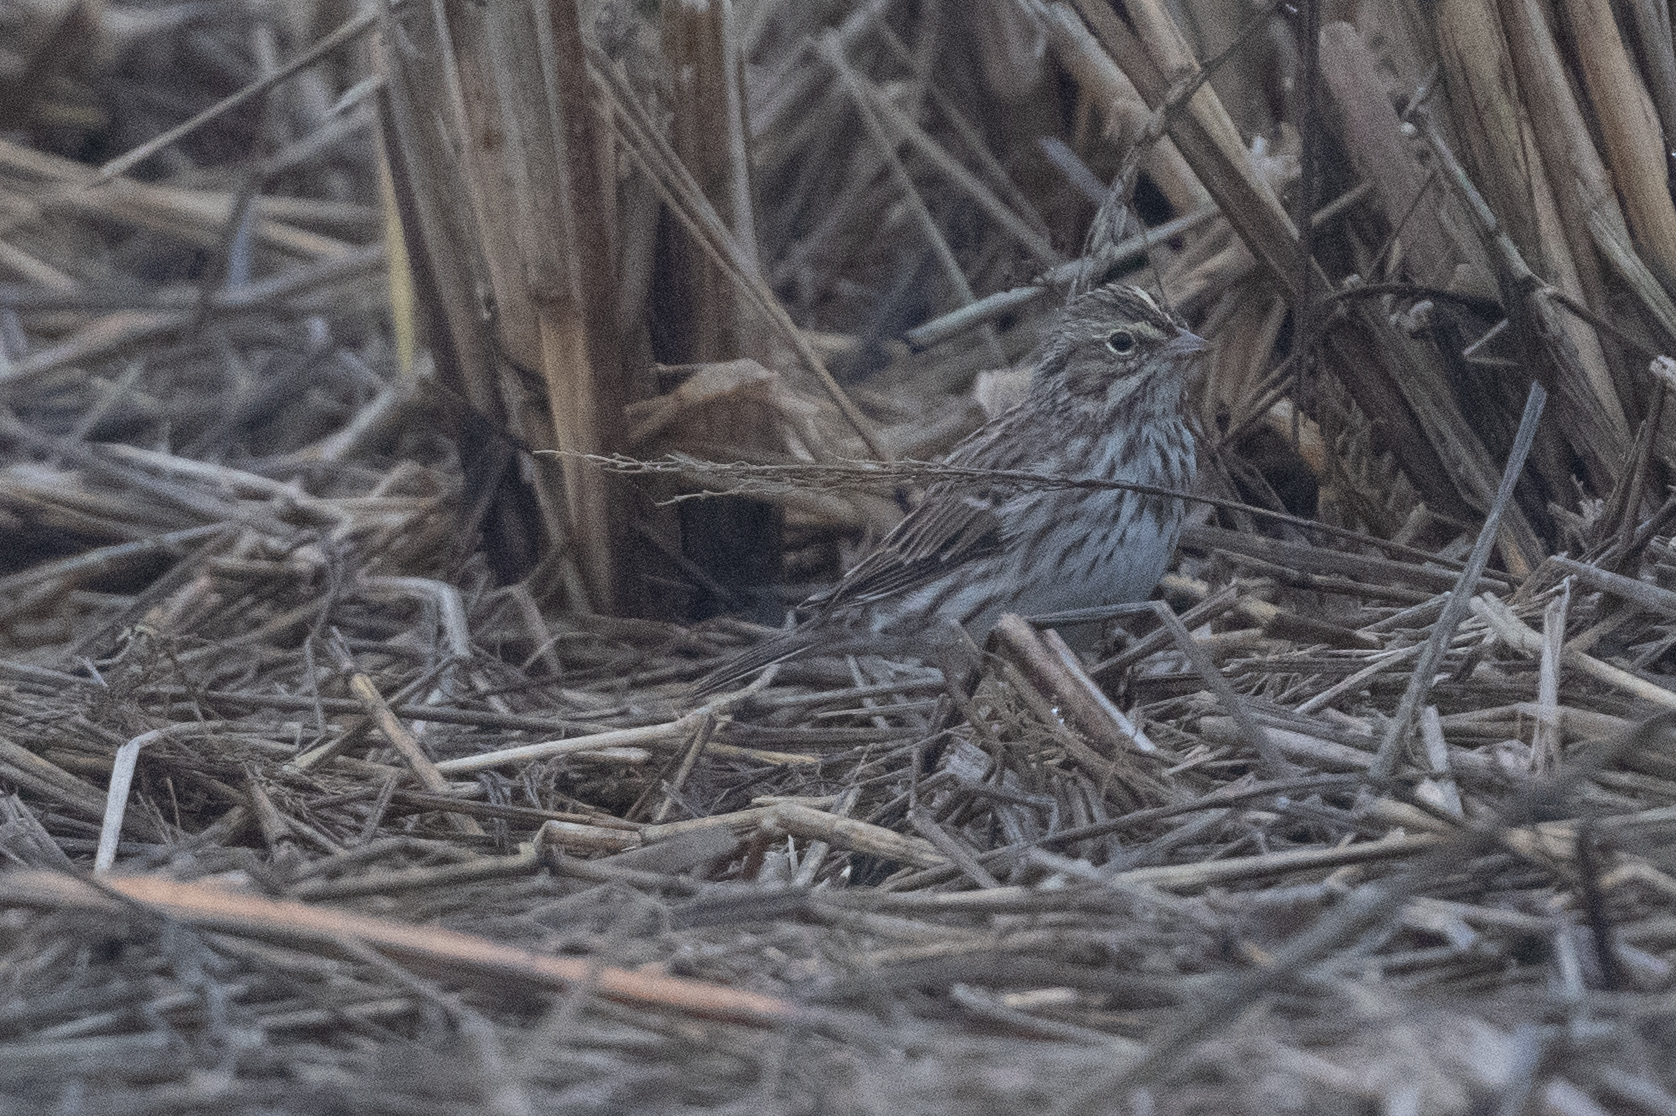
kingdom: Animalia
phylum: Chordata
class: Aves
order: Passeriformes
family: Passerellidae
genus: Passerculus
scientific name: Passerculus sandwichensis
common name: Savannah sparrow
